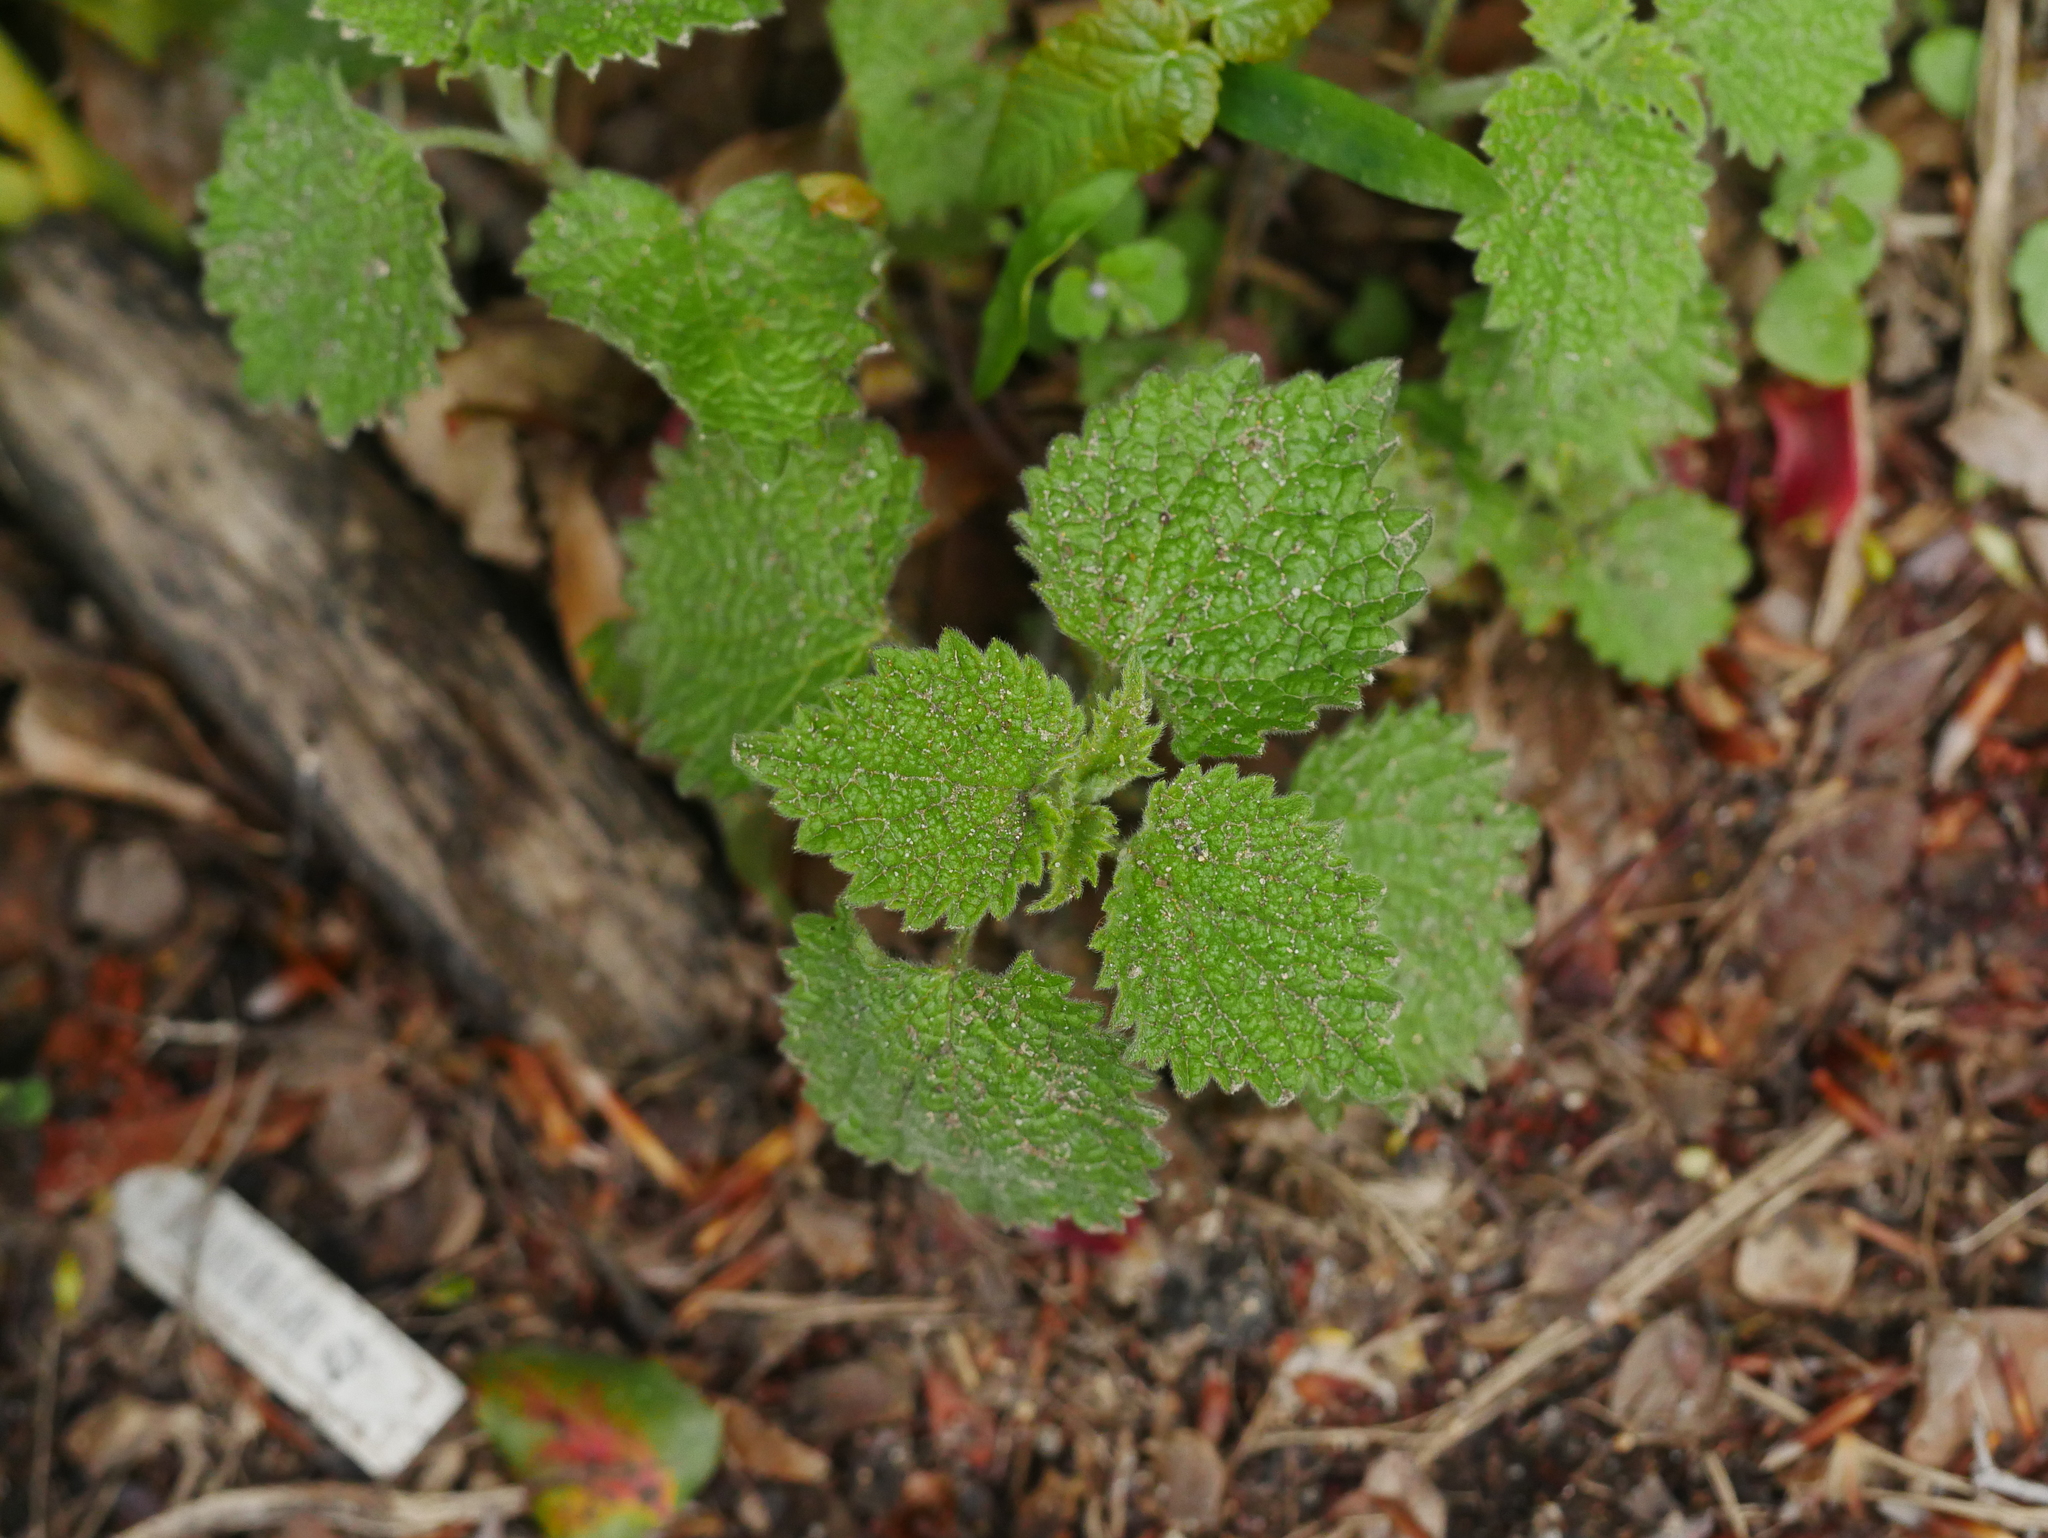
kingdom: Plantae
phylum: Tracheophyta
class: Magnoliopsida
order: Lamiales
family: Lamiaceae
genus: Ballota
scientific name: Ballota nigra
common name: Black horehound
